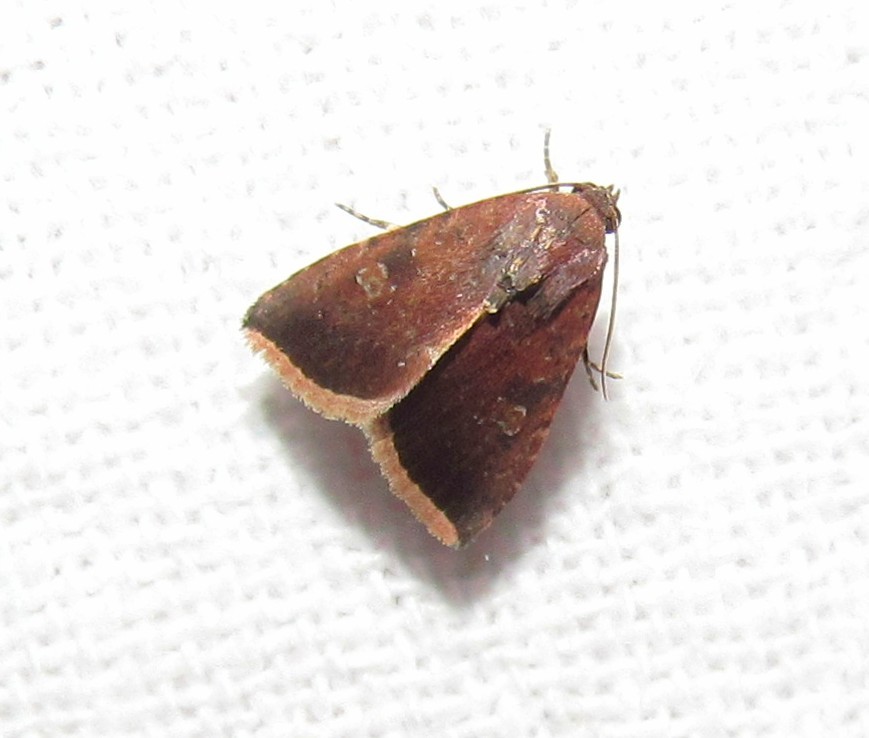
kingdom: Animalia
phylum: Arthropoda
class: Insecta
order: Lepidoptera
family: Noctuidae
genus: Micrathetis
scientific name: Micrathetis canifimbria
